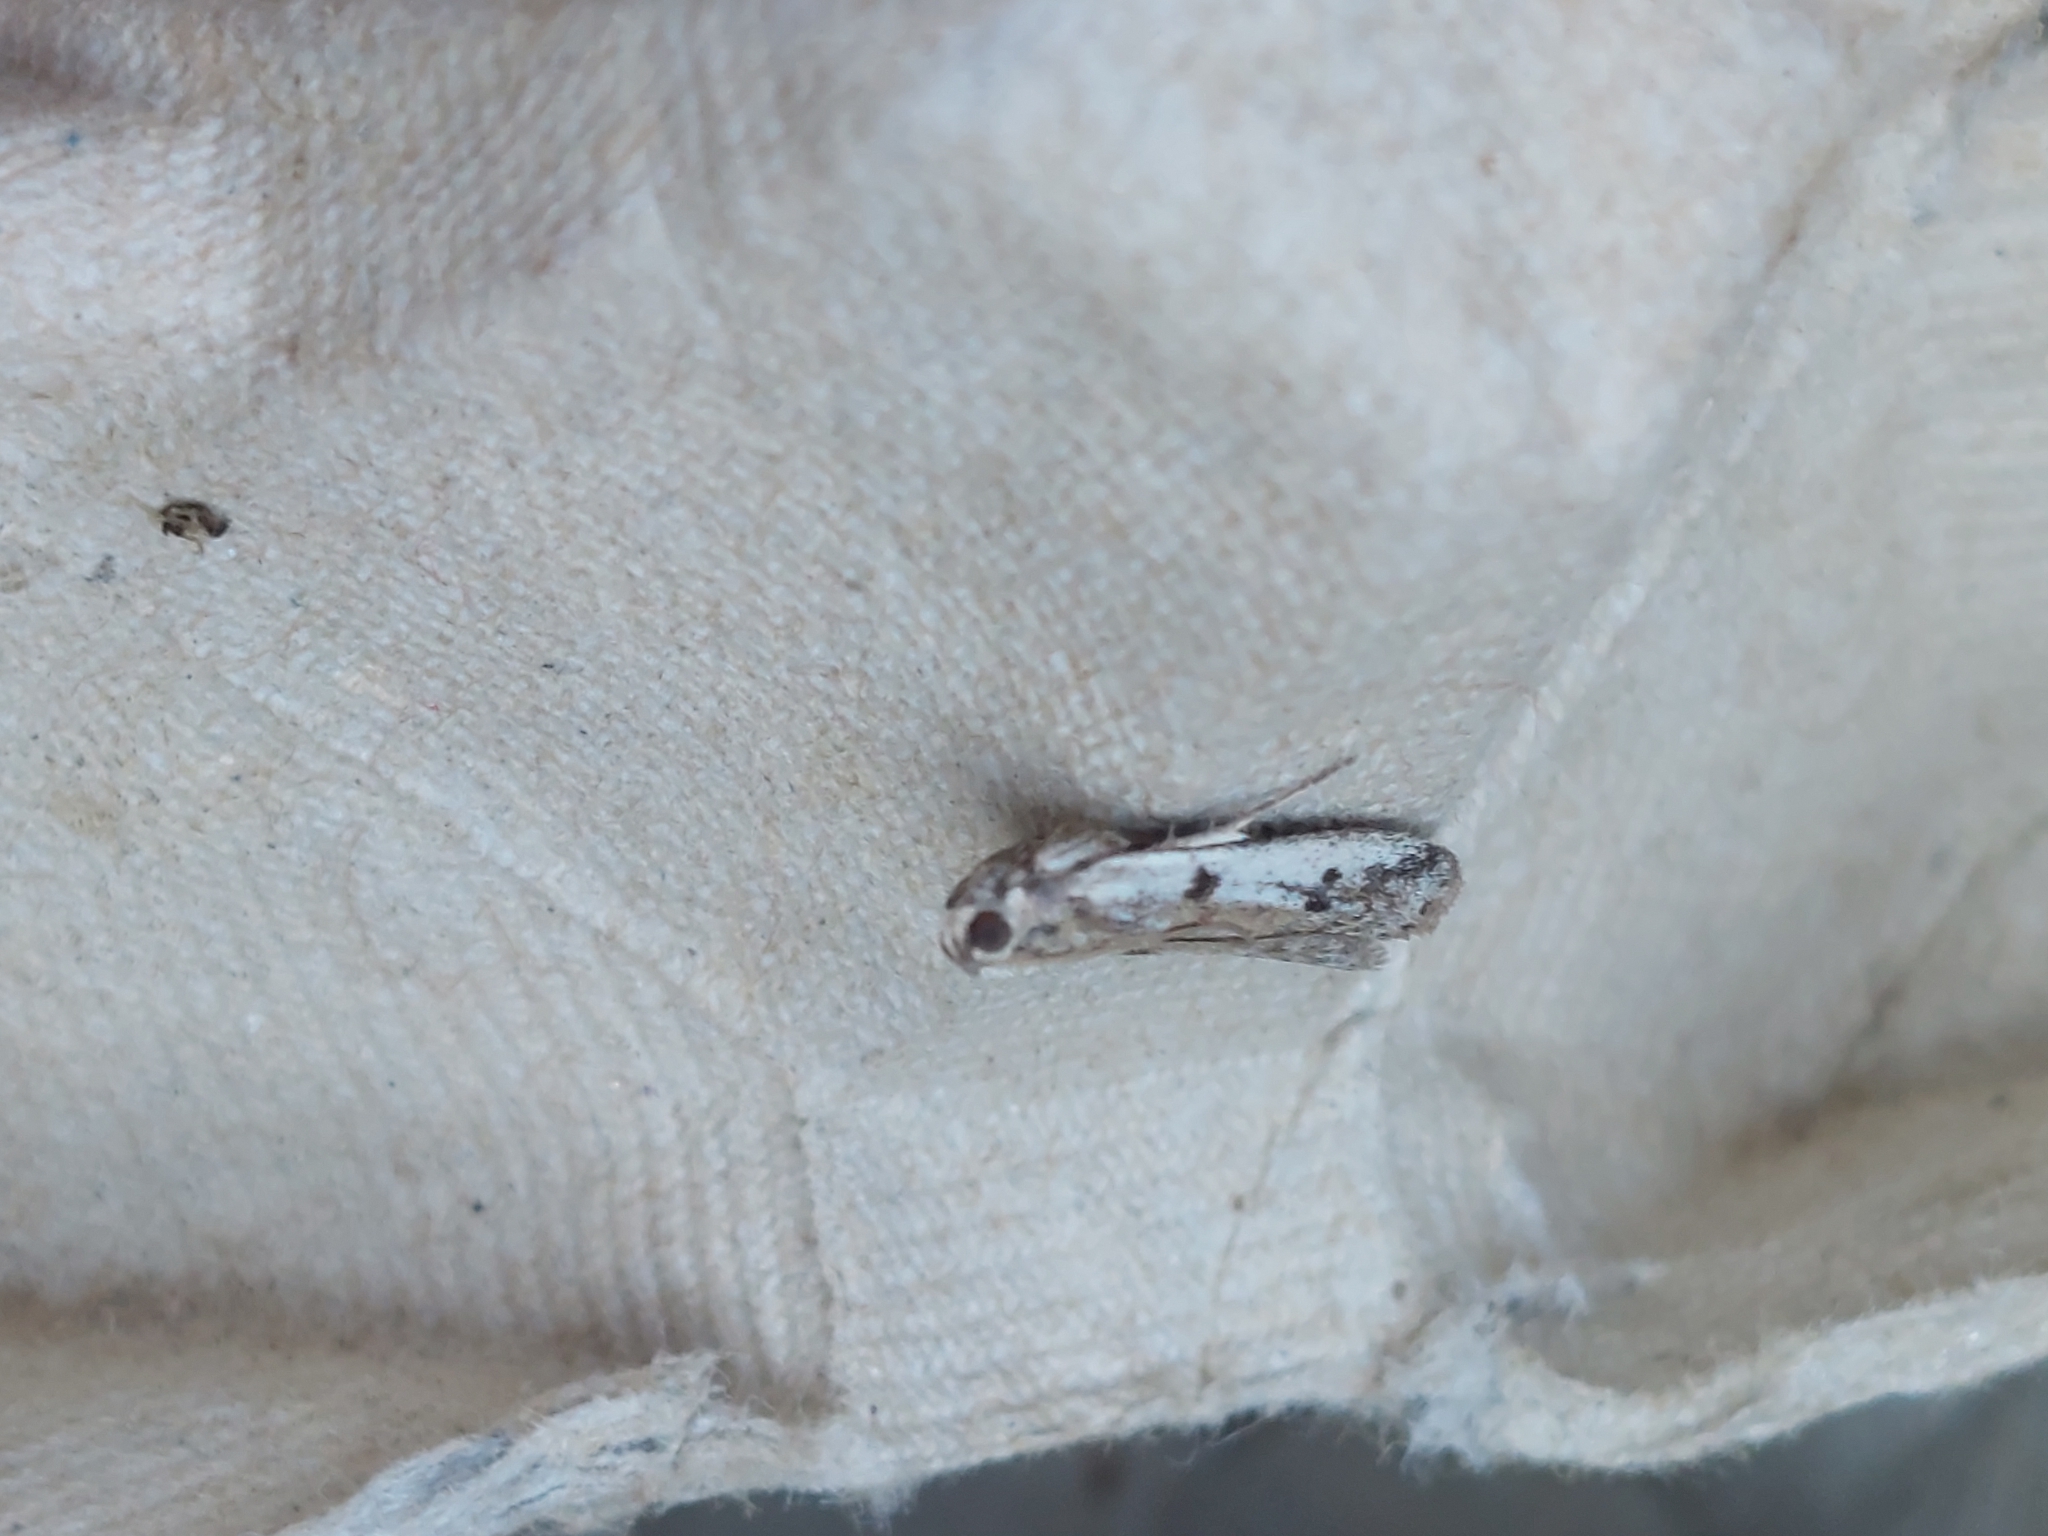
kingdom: Animalia
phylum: Arthropoda
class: Insecta
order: Lepidoptera
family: Pyralidae
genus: Phycitodes
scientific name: Phycitodes binaevella
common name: Ermine knot-horn
